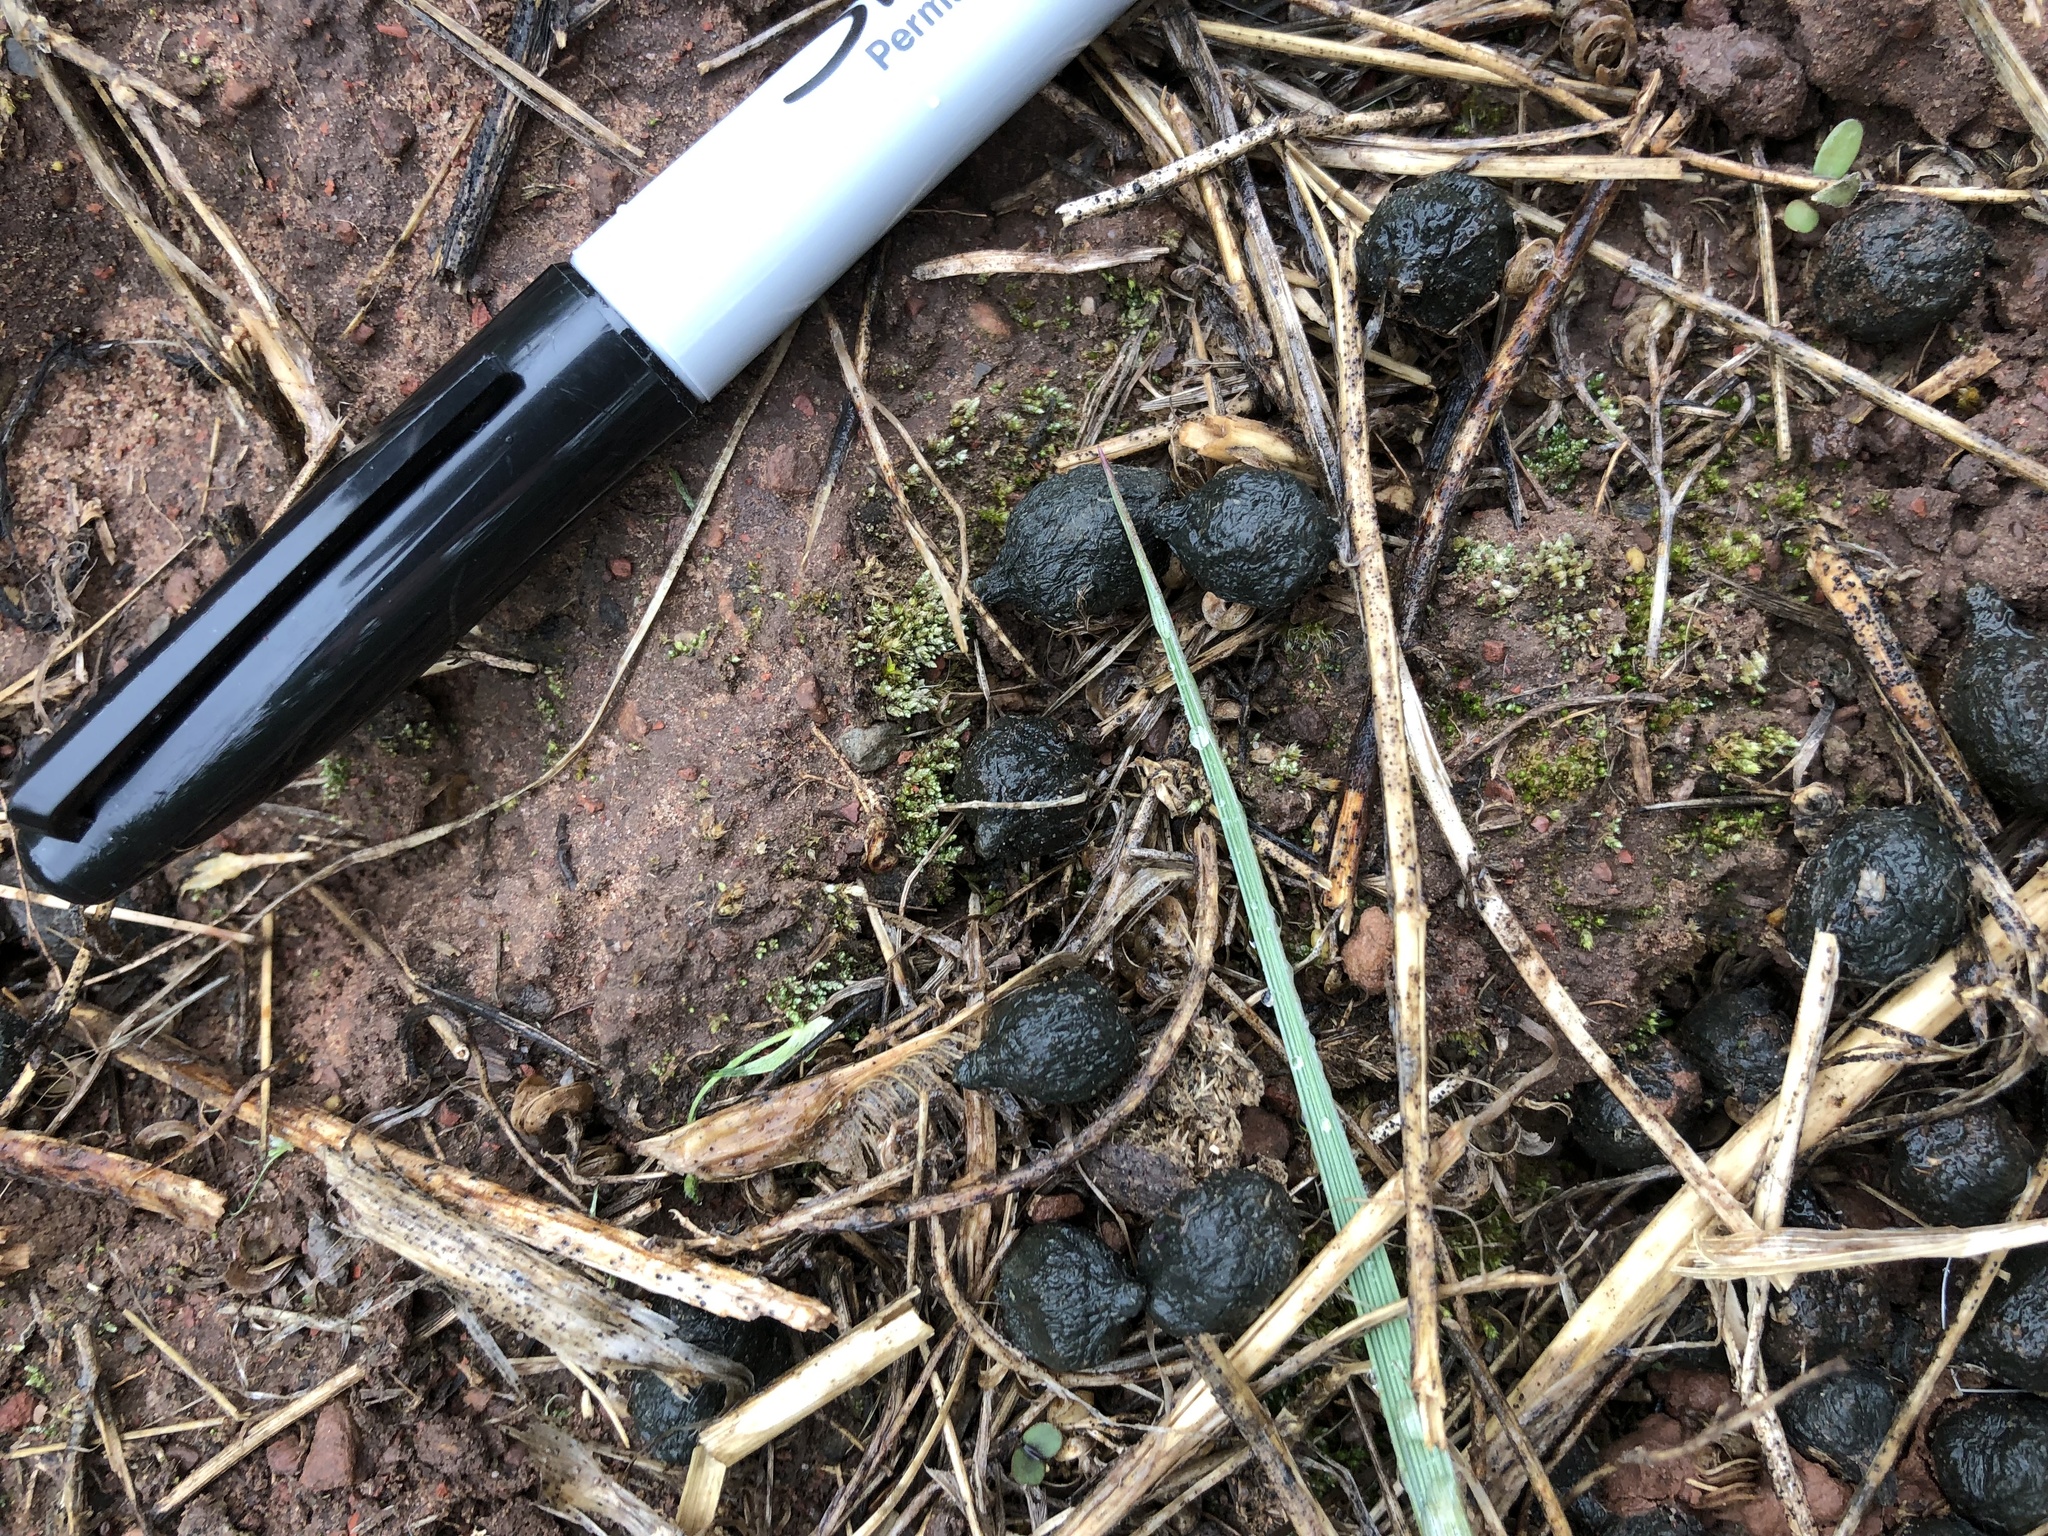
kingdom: Animalia
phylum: Chordata
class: Mammalia
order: Artiodactyla
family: Cervidae
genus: Odocoileus
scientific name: Odocoileus hemionus
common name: Mule deer
